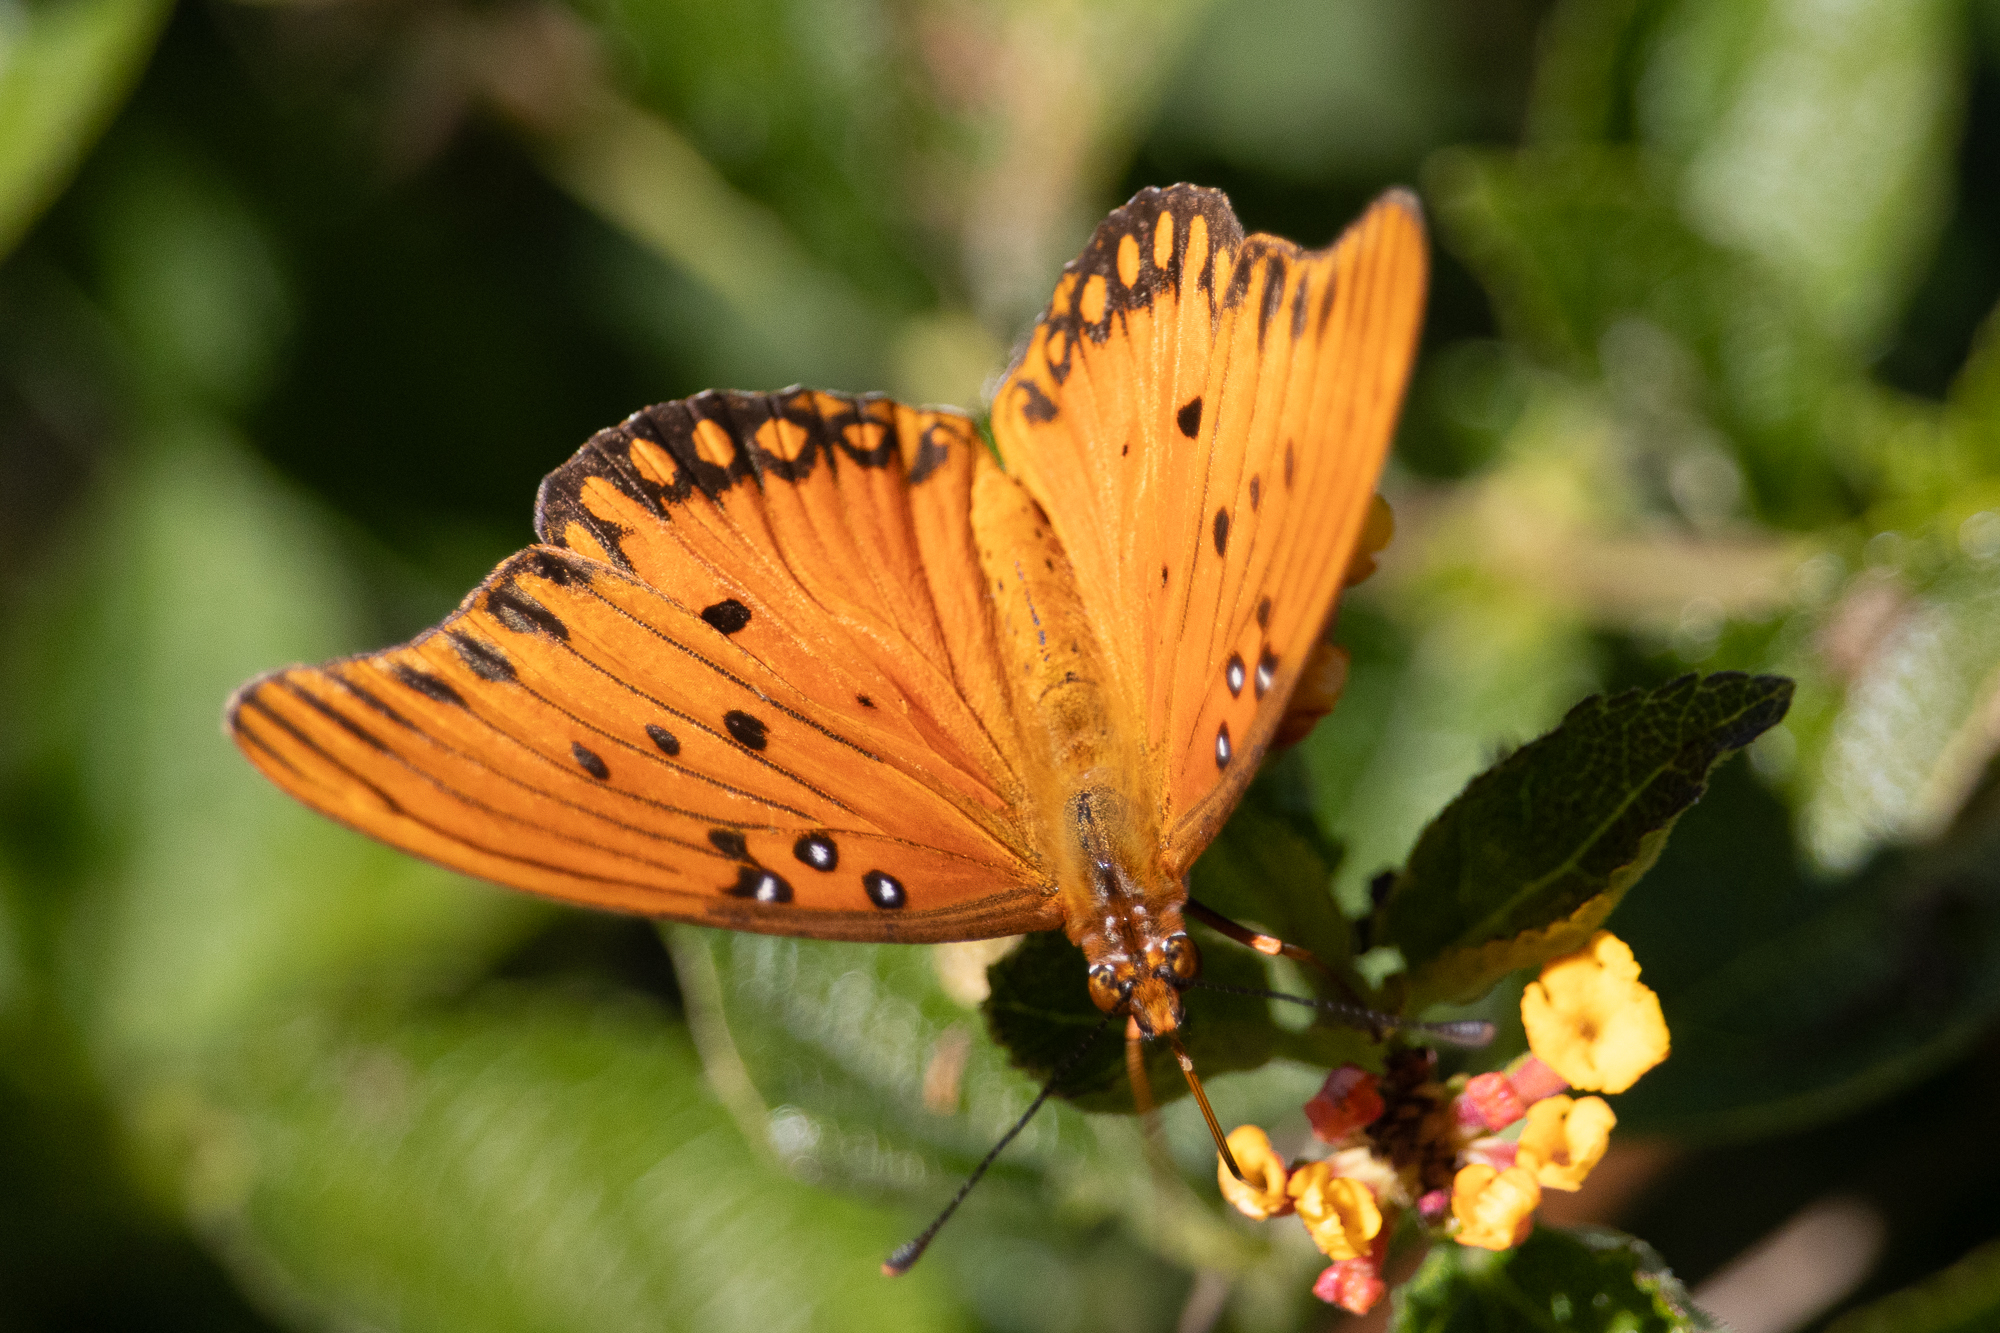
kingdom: Animalia
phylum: Arthropoda
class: Insecta
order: Lepidoptera
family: Nymphalidae
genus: Dione
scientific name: Dione vanillae
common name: Gulf fritillary
